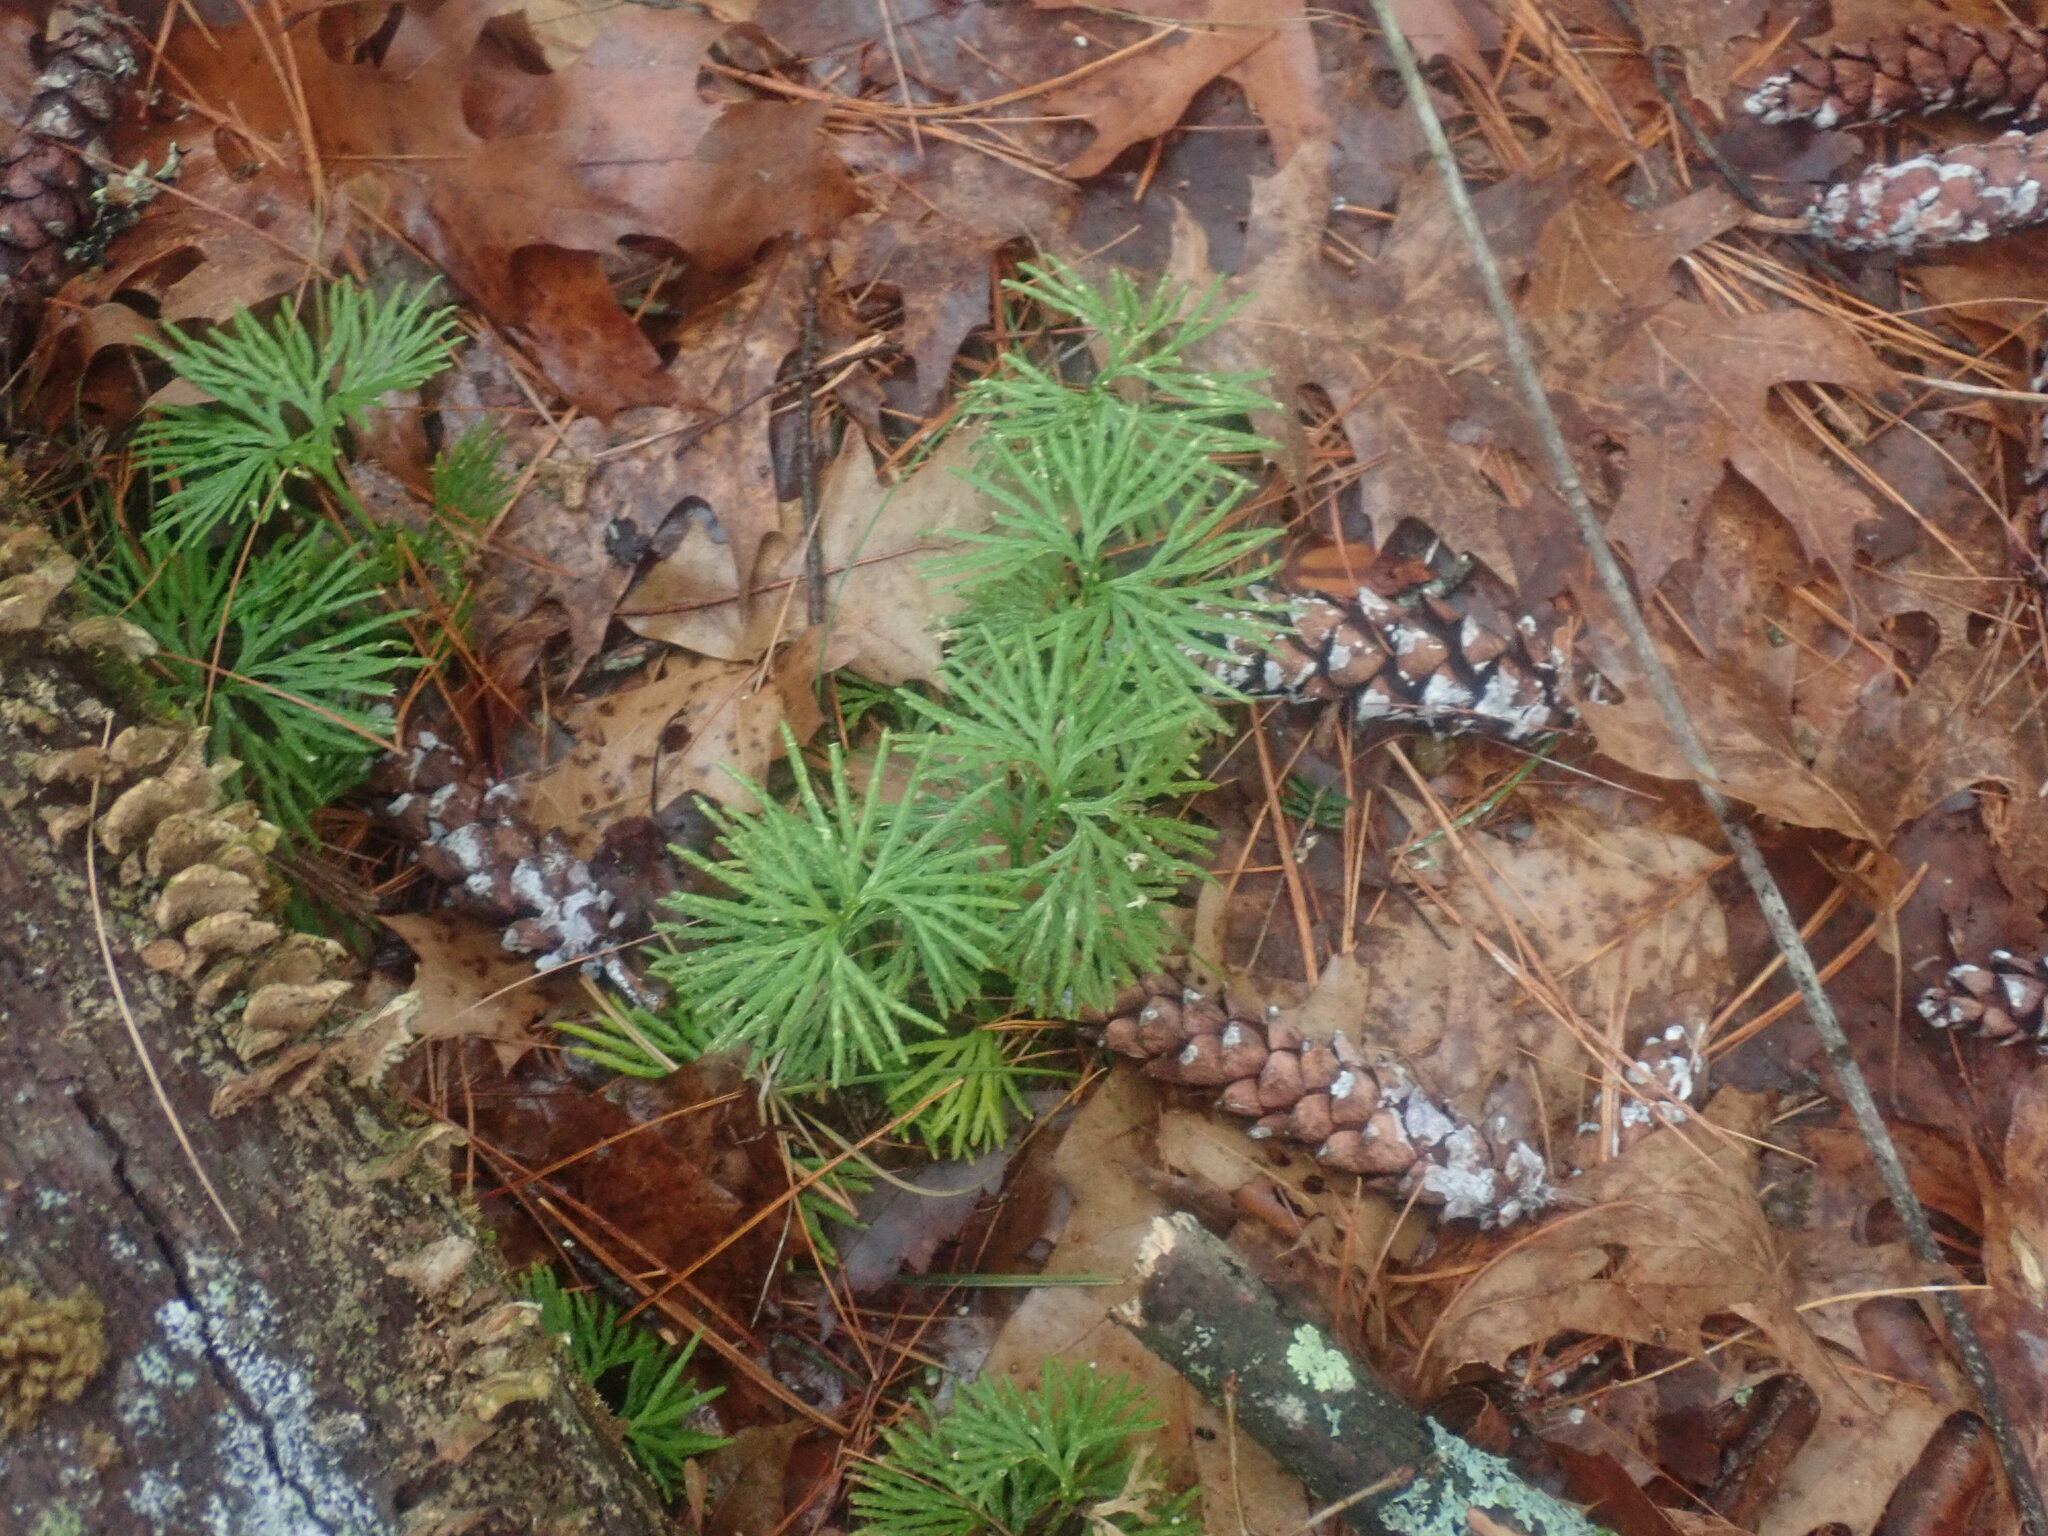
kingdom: Plantae
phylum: Tracheophyta
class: Lycopodiopsida
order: Lycopodiales
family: Lycopodiaceae
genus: Diphasiastrum
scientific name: Diphasiastrum digitatum
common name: Southern running-pine
